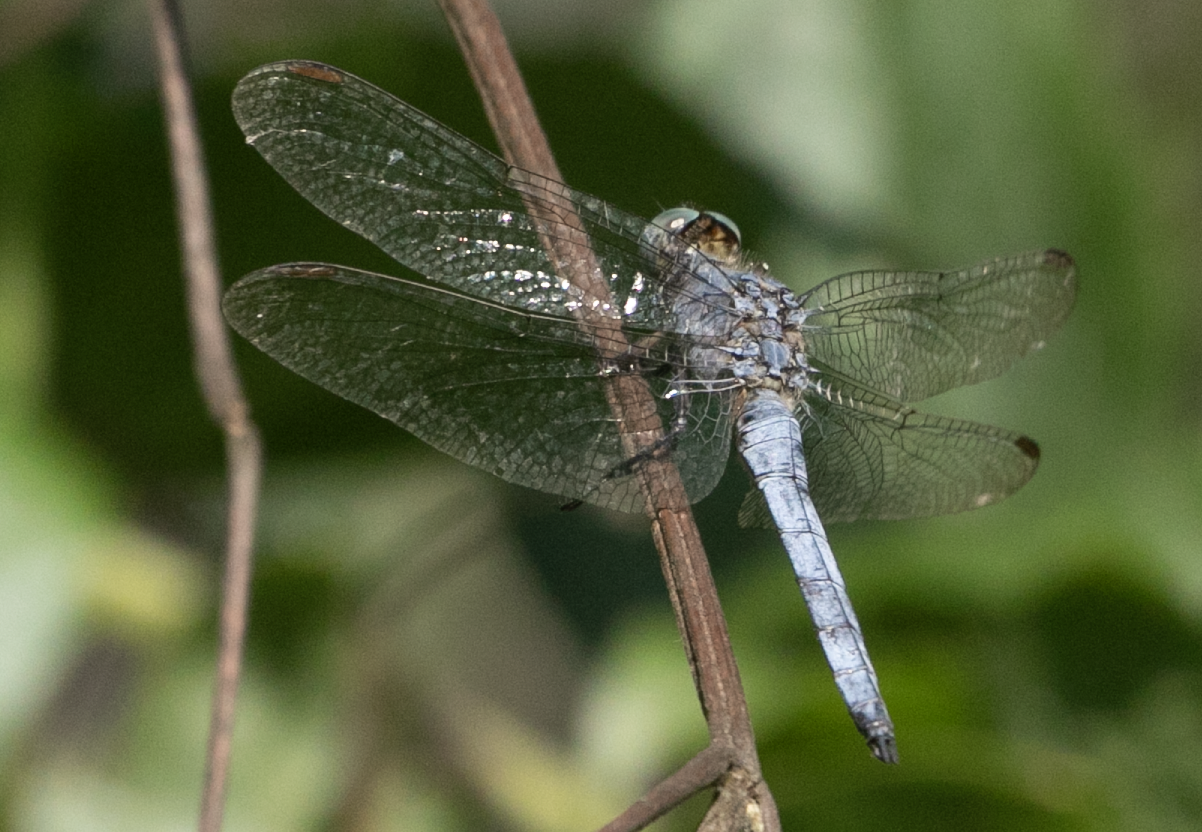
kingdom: Animalia
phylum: Arthropoda
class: Insecta
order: Odonata
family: Libellulidae
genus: Orthetrum
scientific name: Orthetrum coerulescens
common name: Keeled skimmer
